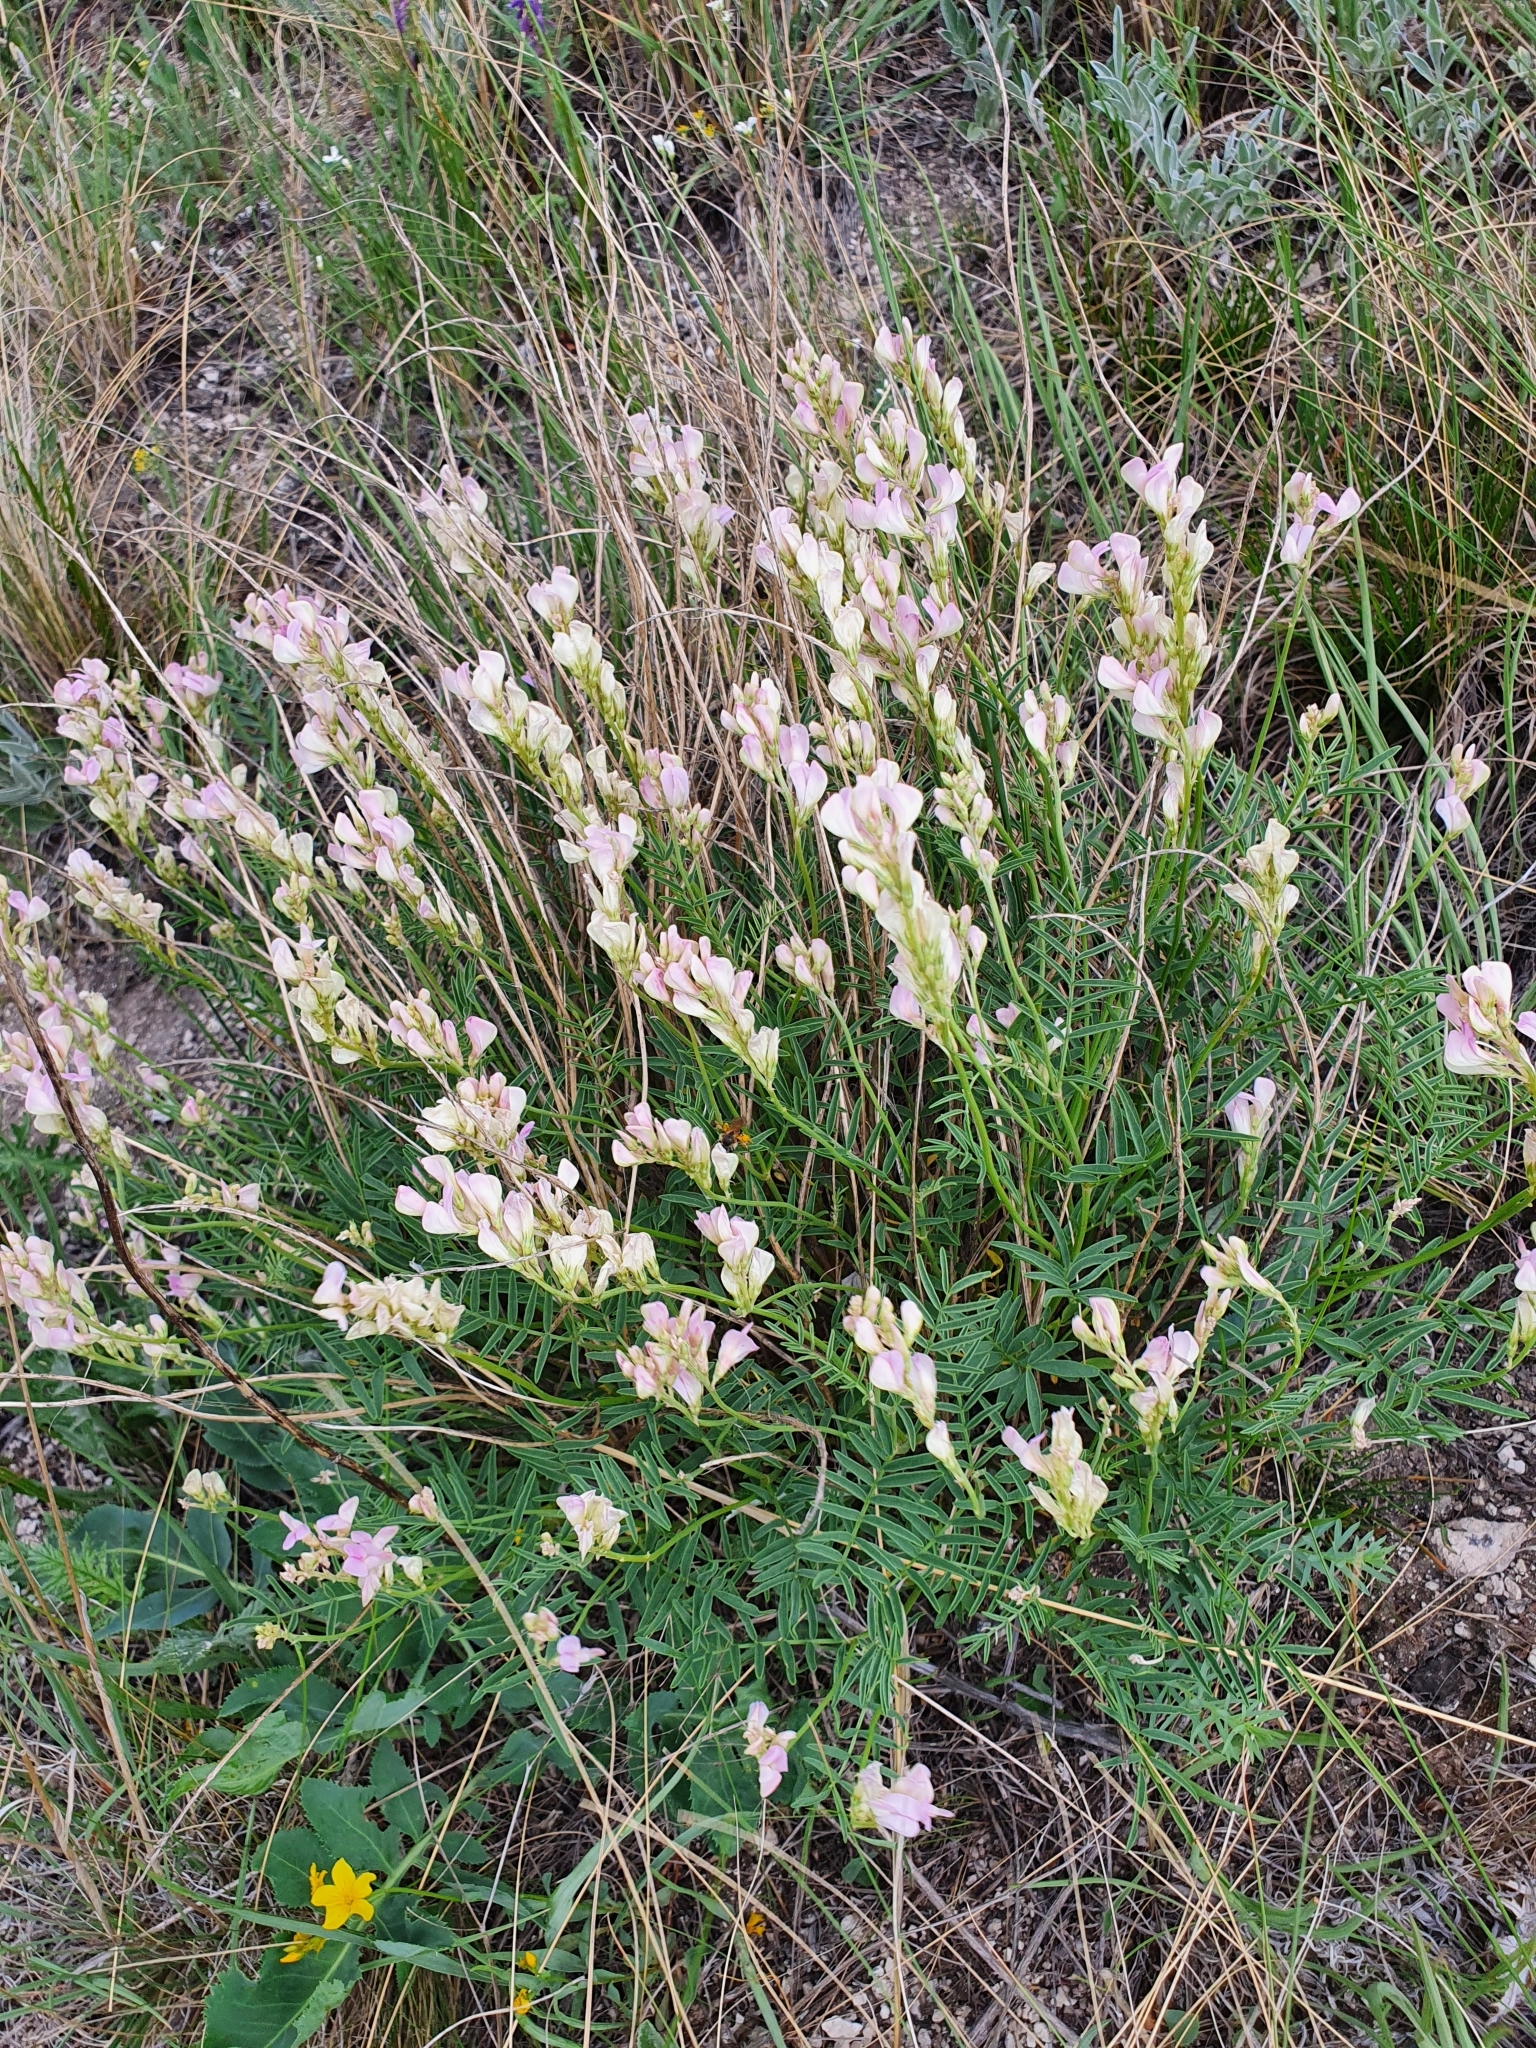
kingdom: Plantae
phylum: Tracheophyta
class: Magnoliopsida
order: Fabales
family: Fabaceae
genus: Hedysarum
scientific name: Hedysarum razoumovianum
